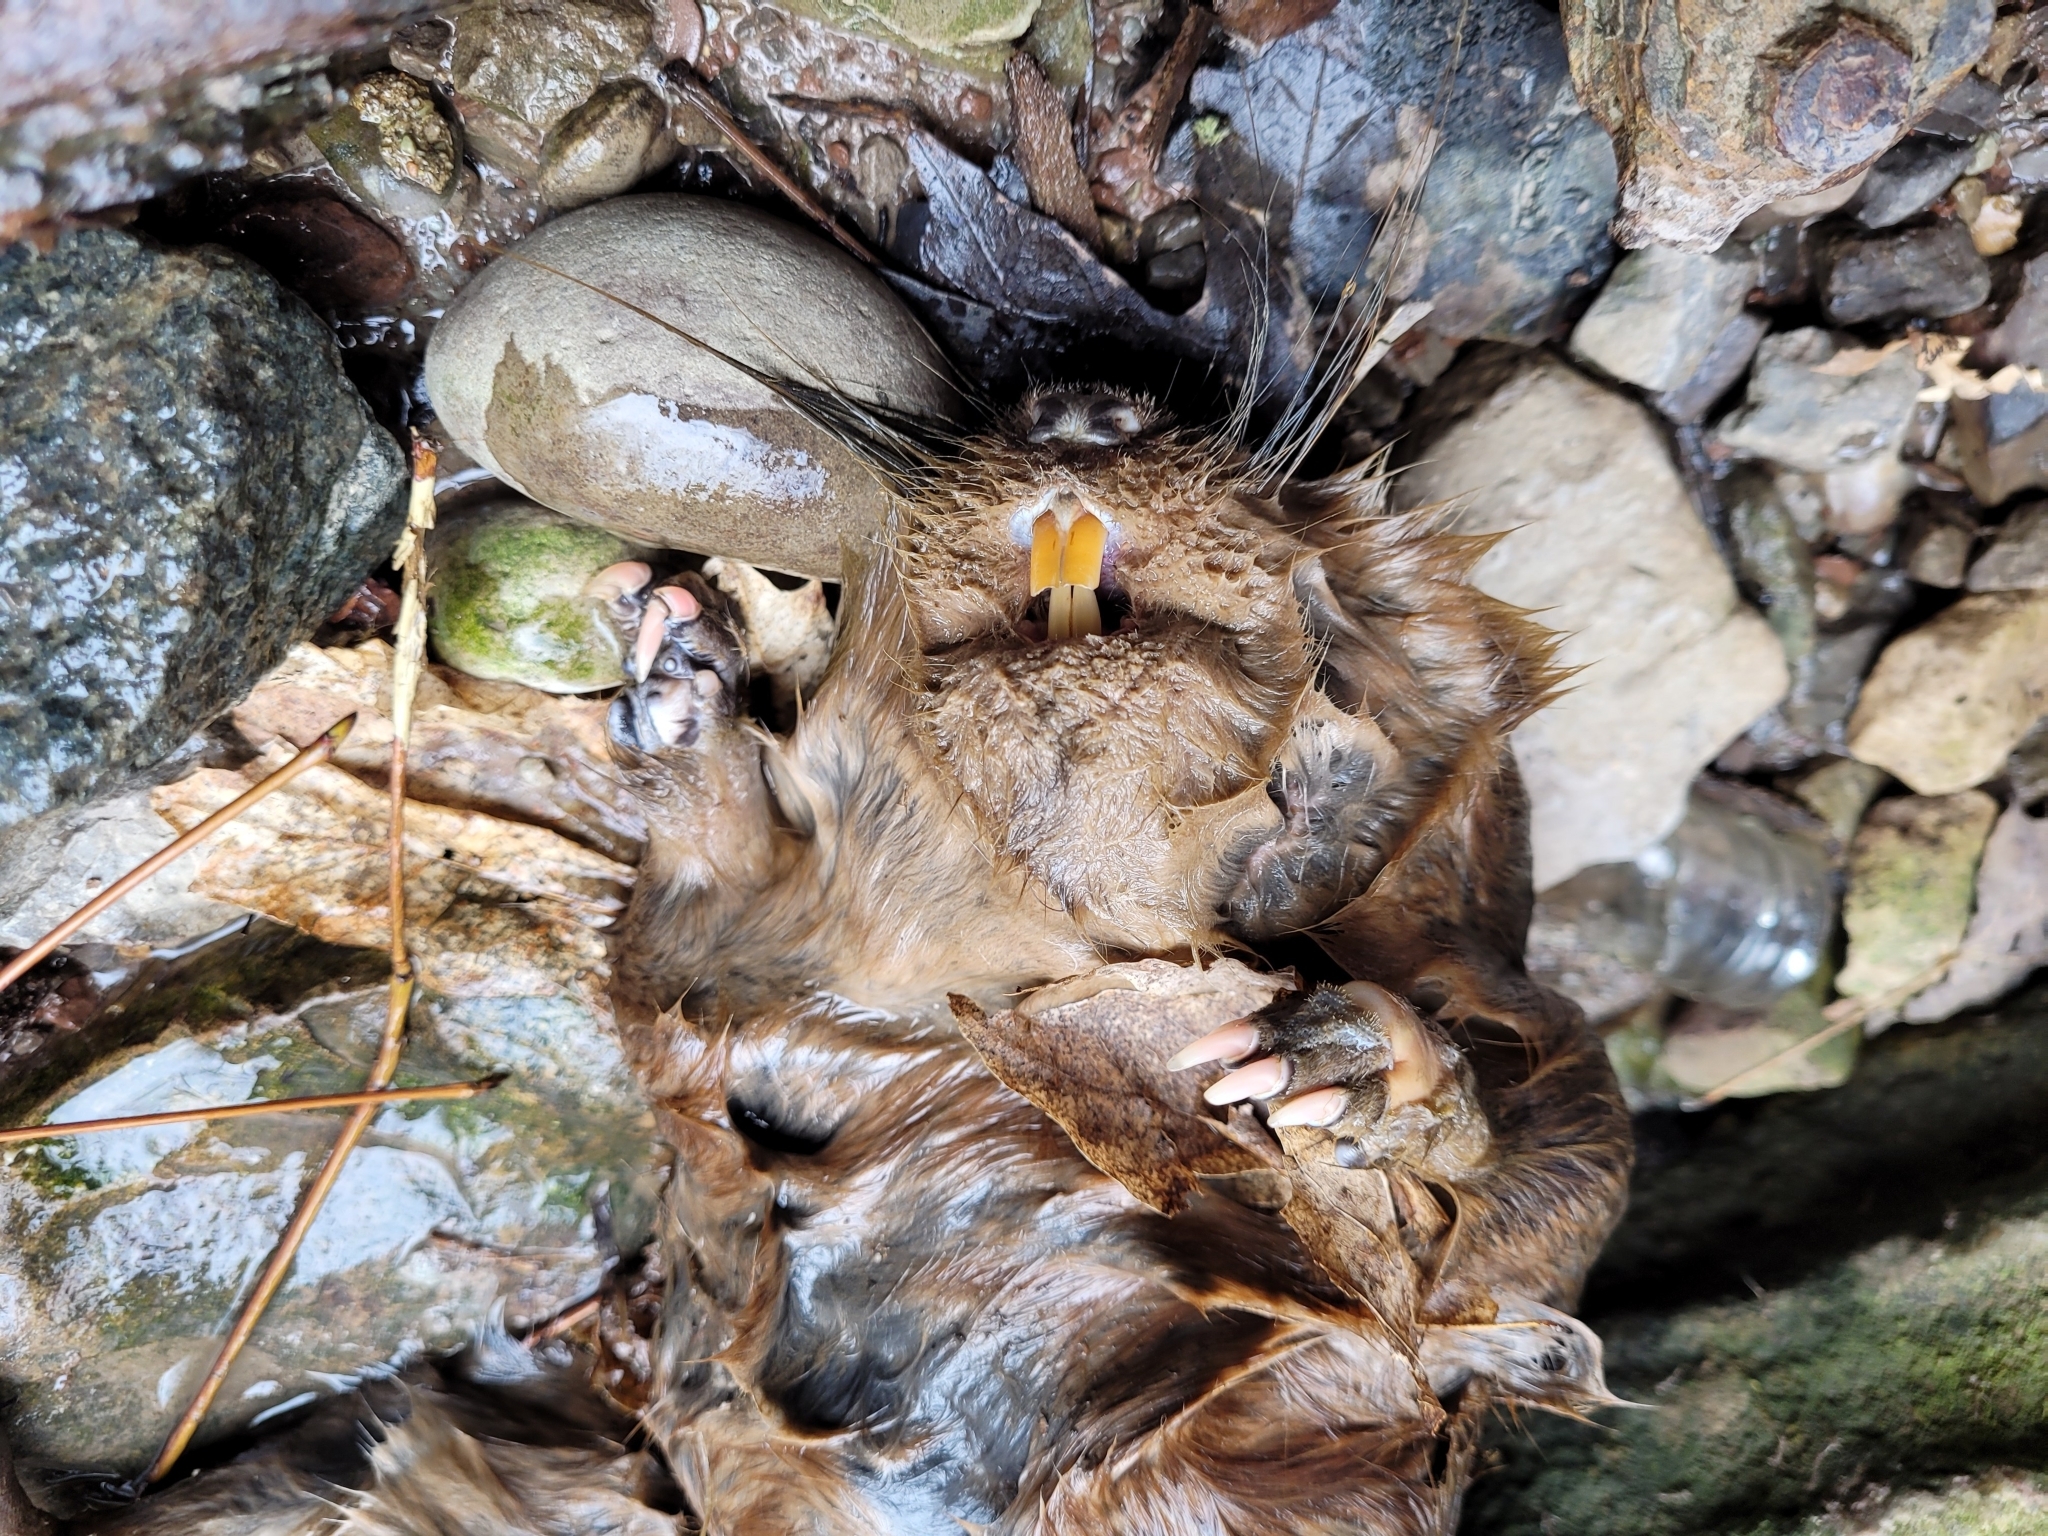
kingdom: Animalia
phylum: Chordata
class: Mammalia
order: Rodentia
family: Cricetidae
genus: Ondatra
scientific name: Ondatra zibethicus
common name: Muskrat
